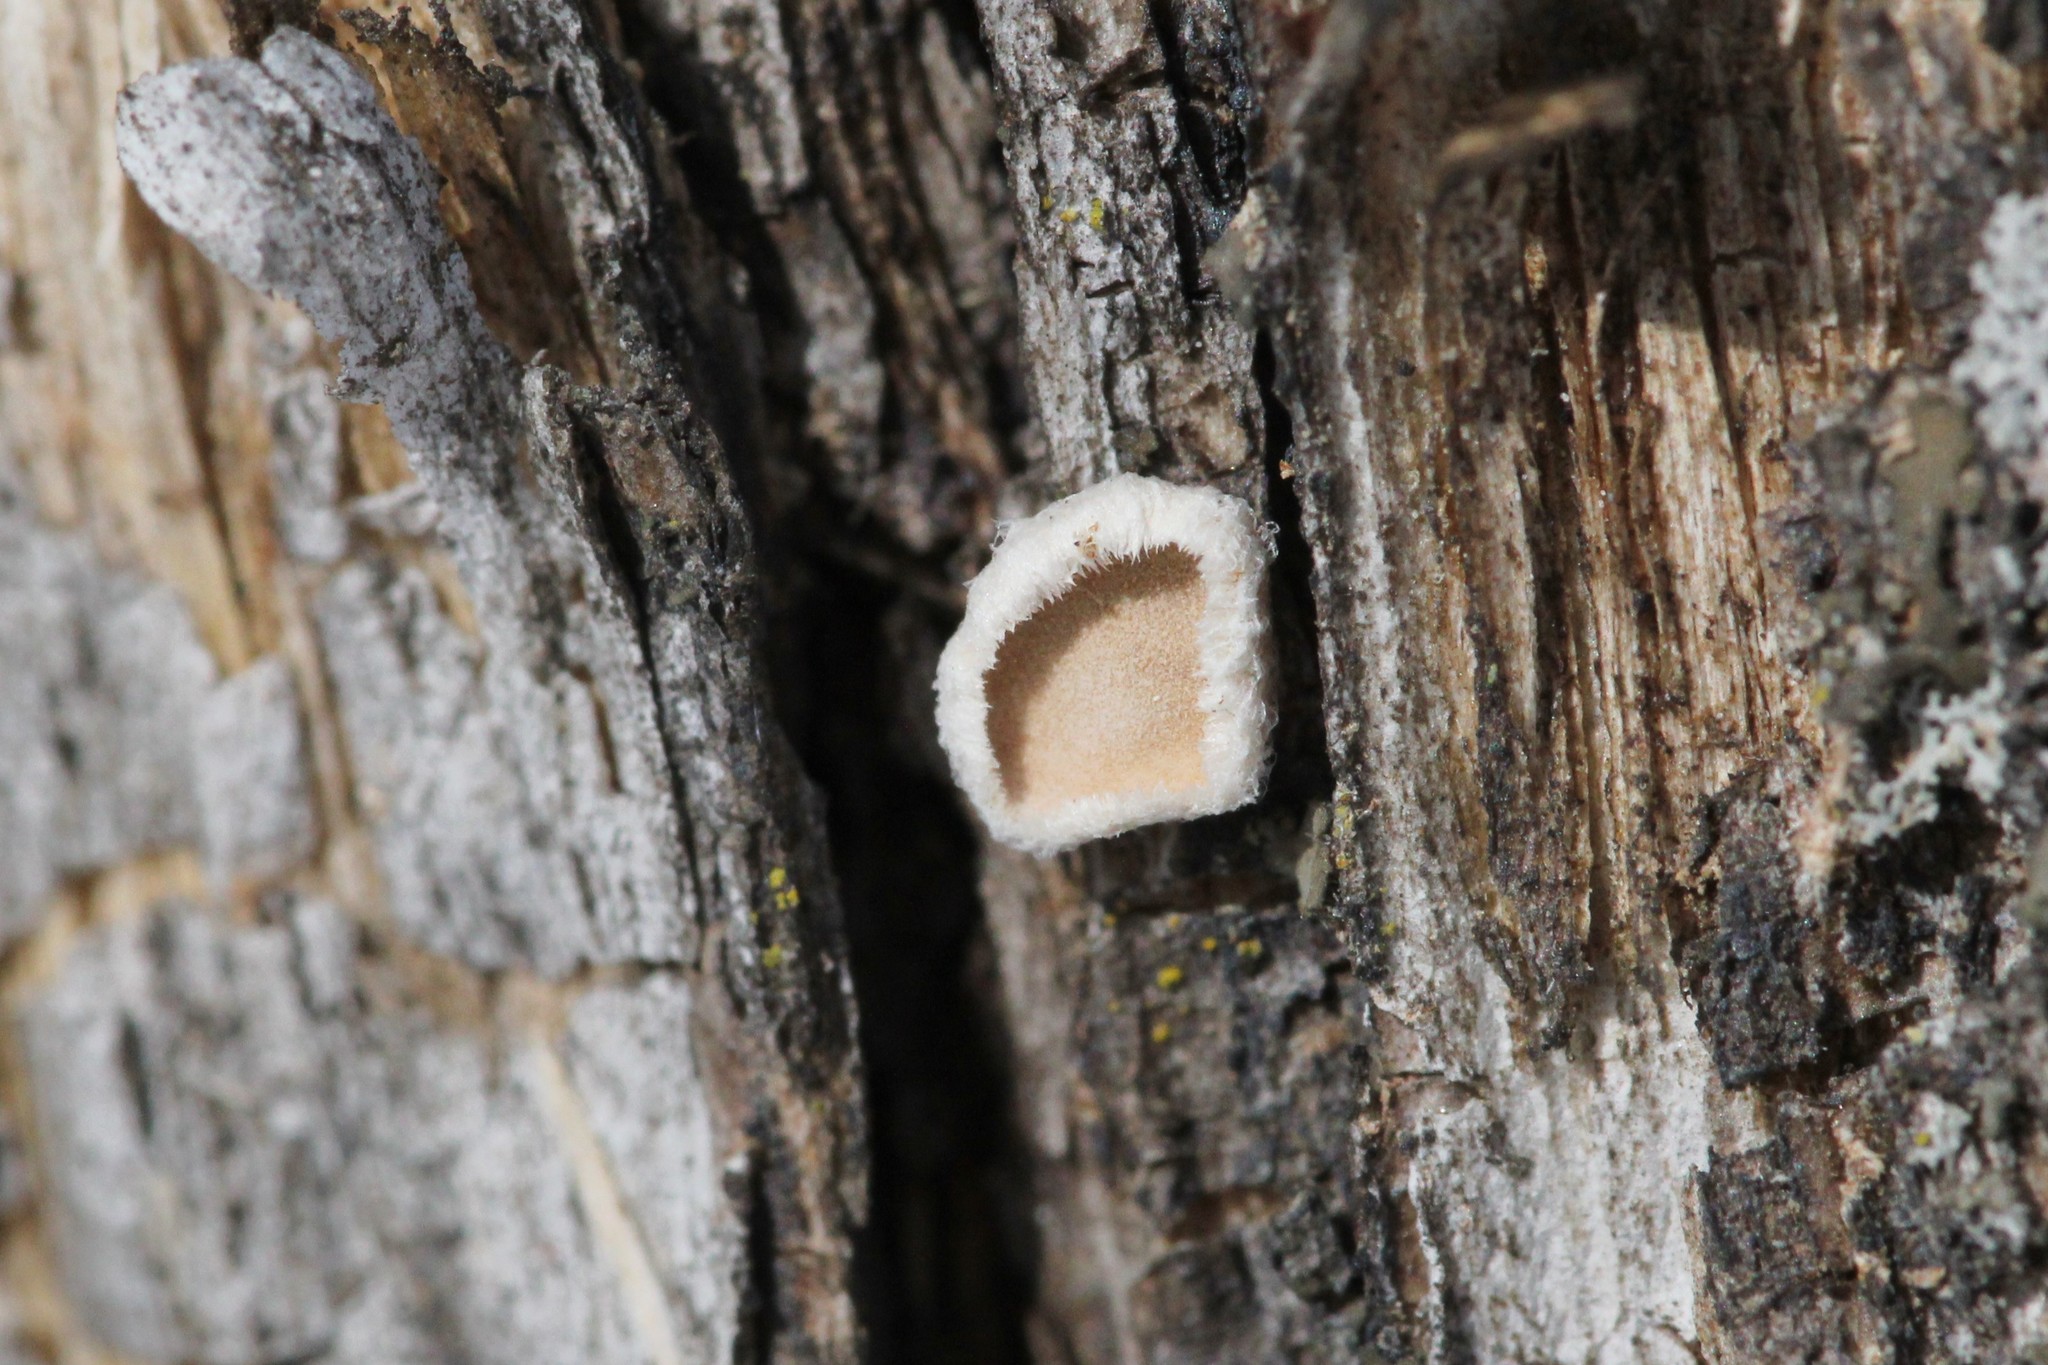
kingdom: Fungi
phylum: Basidiomycota
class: Agaricomycetes
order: Russulales
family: Stereaceae
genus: Acanthophysium
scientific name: Acanthophysium oakesii
